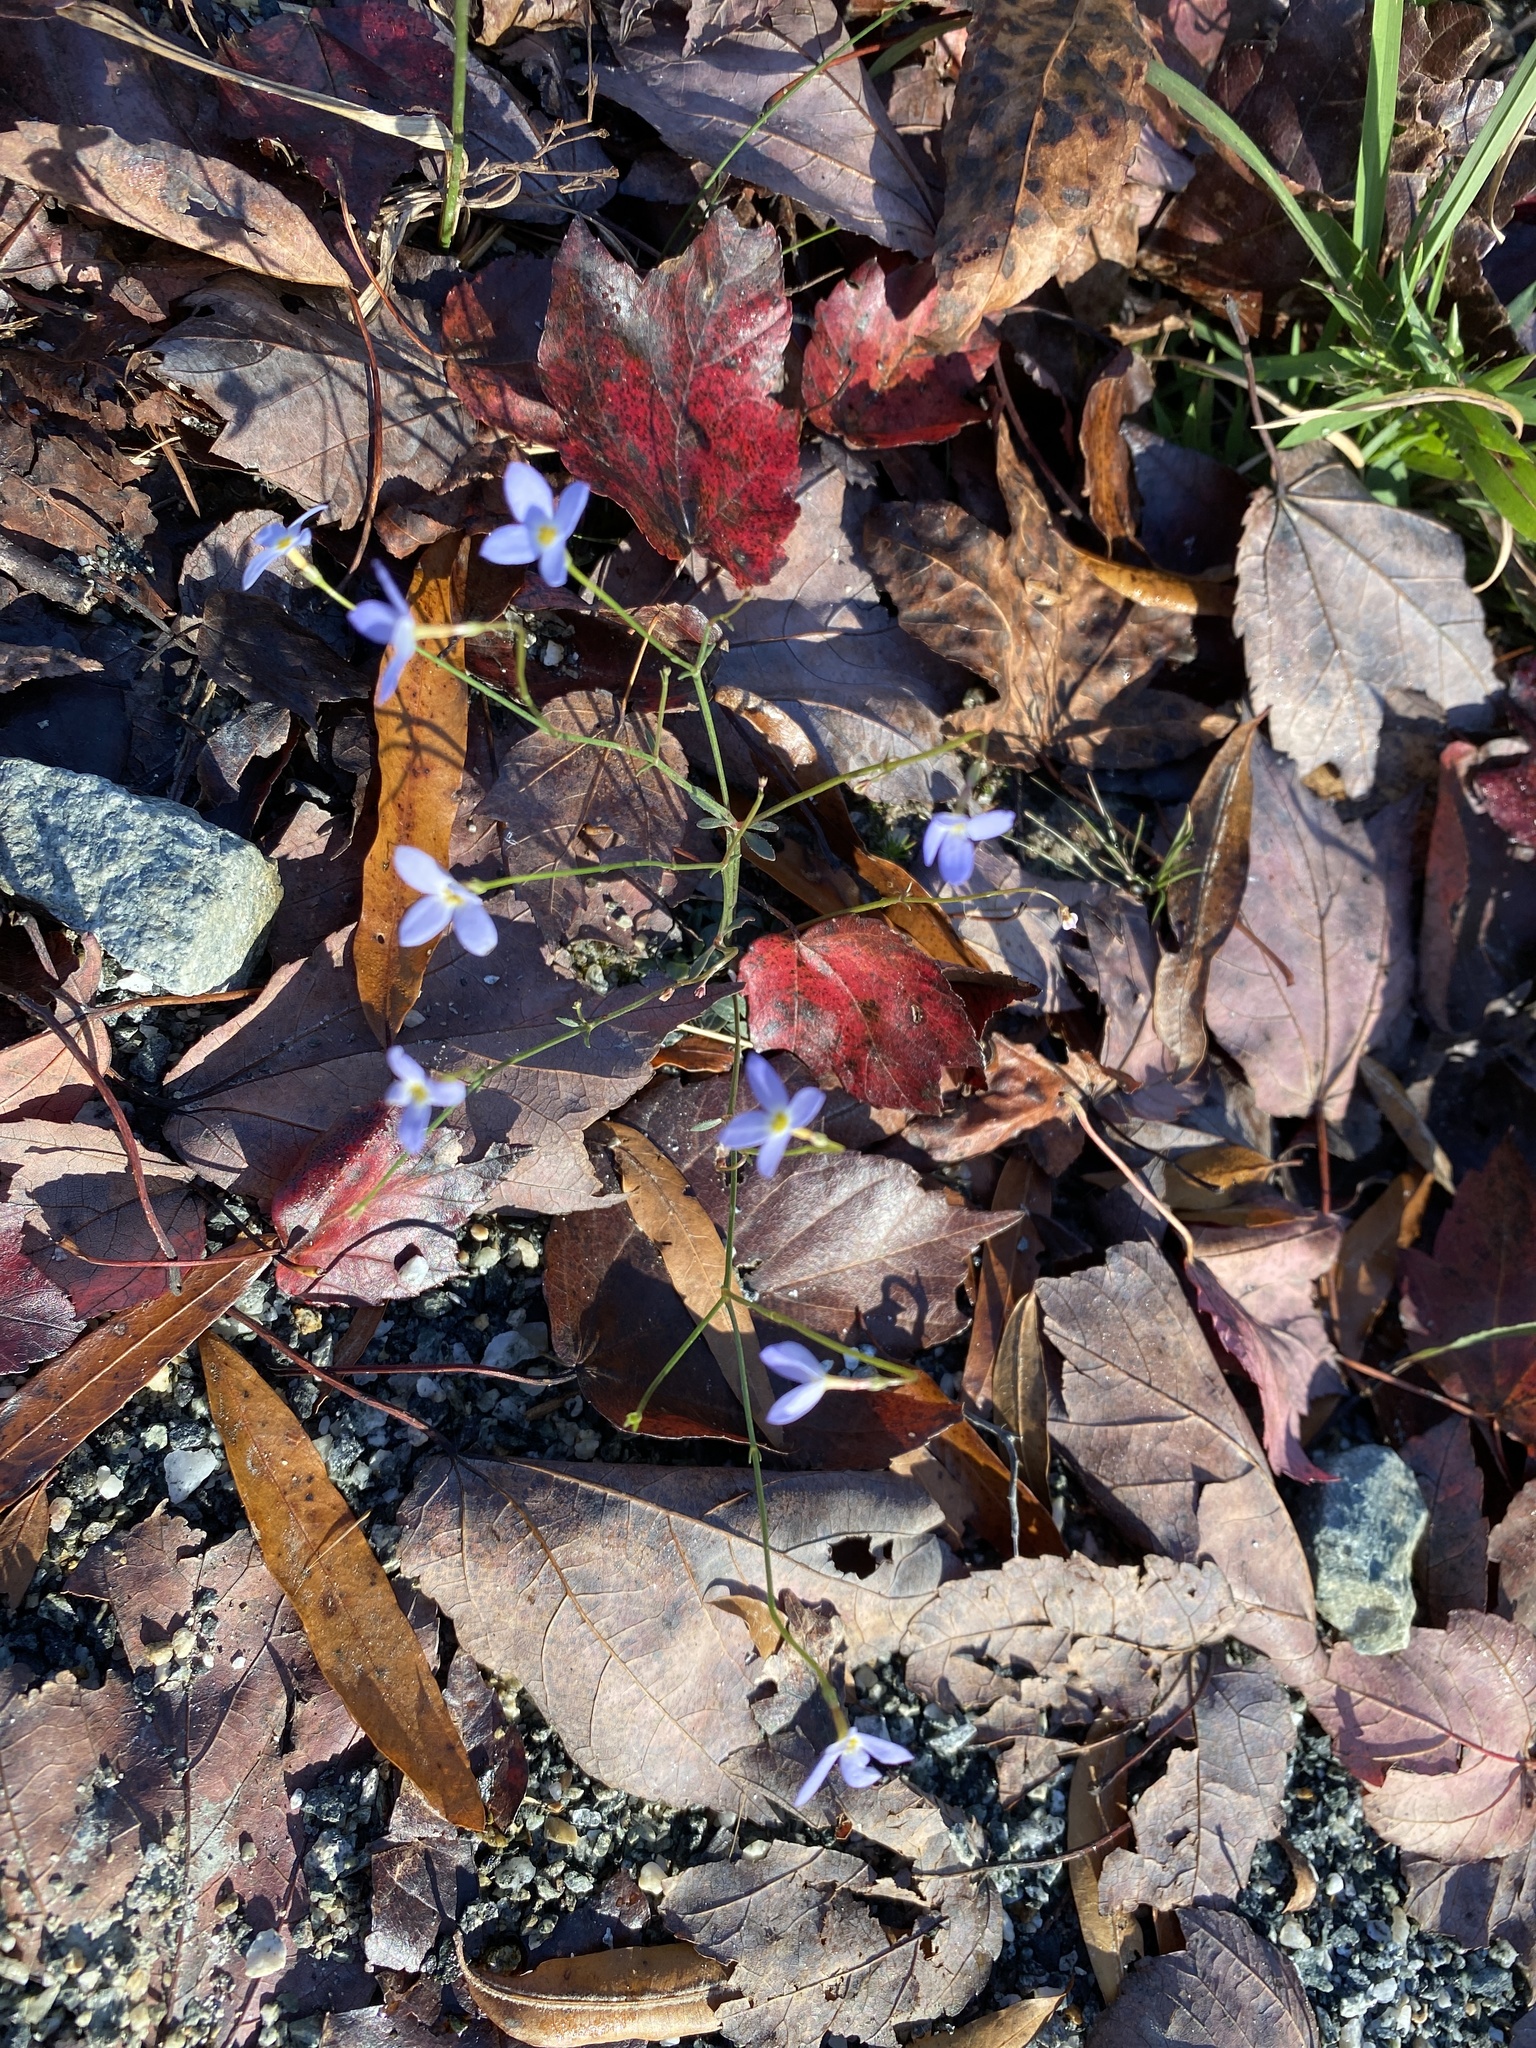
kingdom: Plantae
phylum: Tracheophyta
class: Magnoliopsida
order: Gentianales
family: Rubiaceae
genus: Houstonia
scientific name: Houstonia caerulea
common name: Bluets
